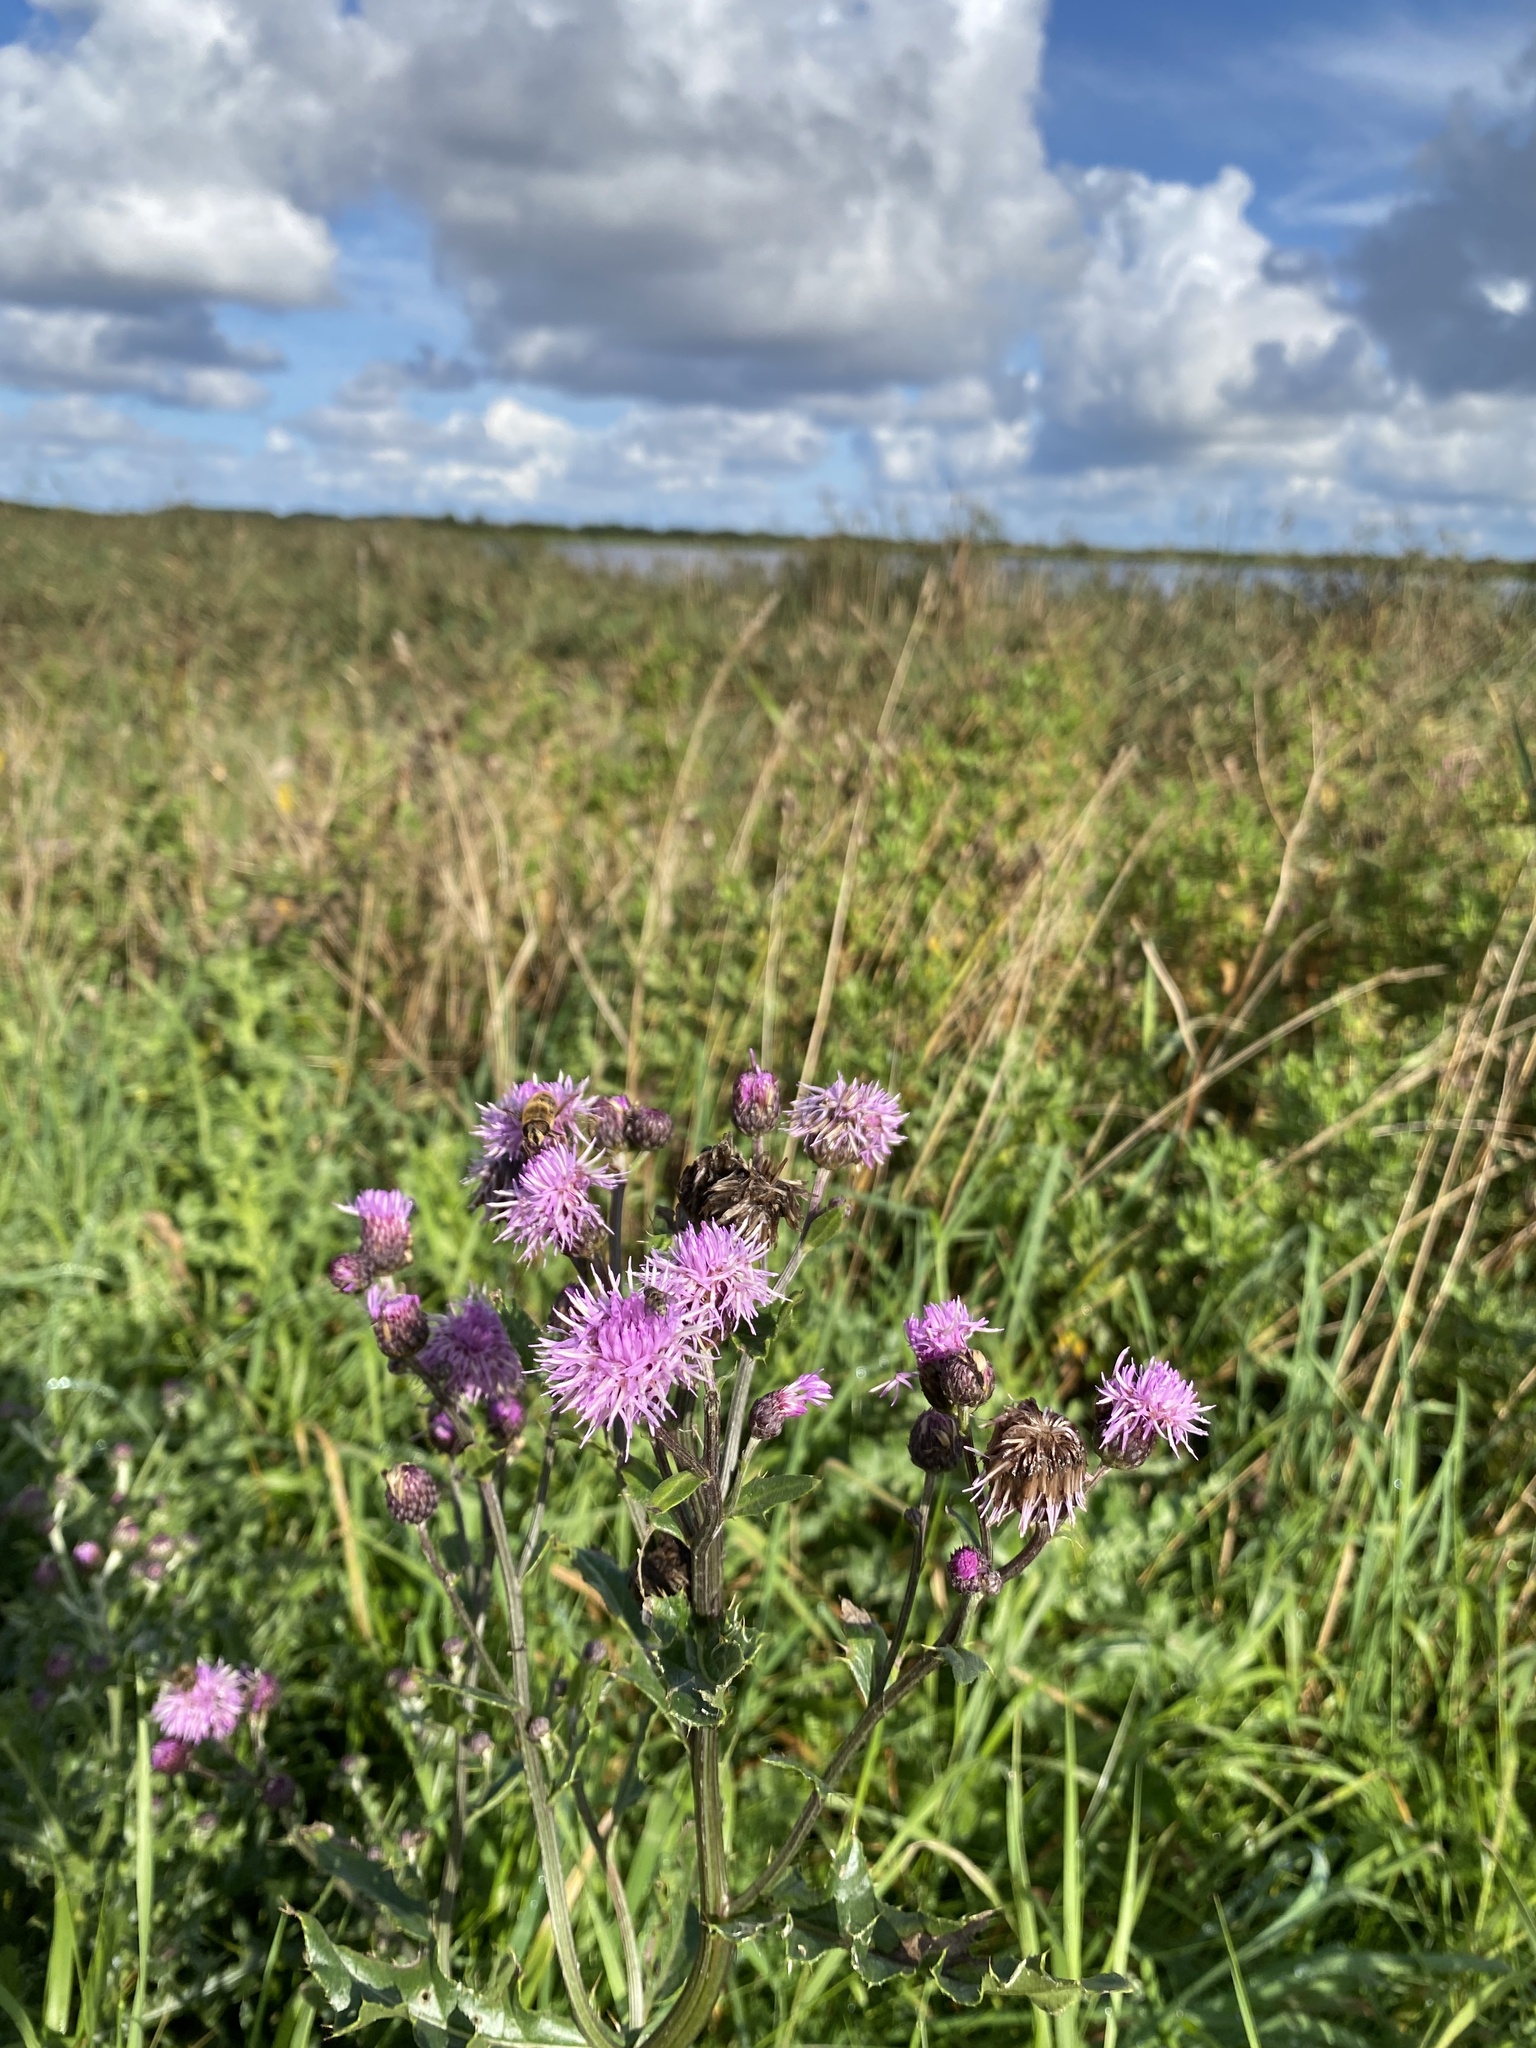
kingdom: Plantae
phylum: Tracheophyta
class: Magnoliopsida
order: Asterales
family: Asteraceae
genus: Cirsium
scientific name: Cirsium arvense
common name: Creeping thistle
